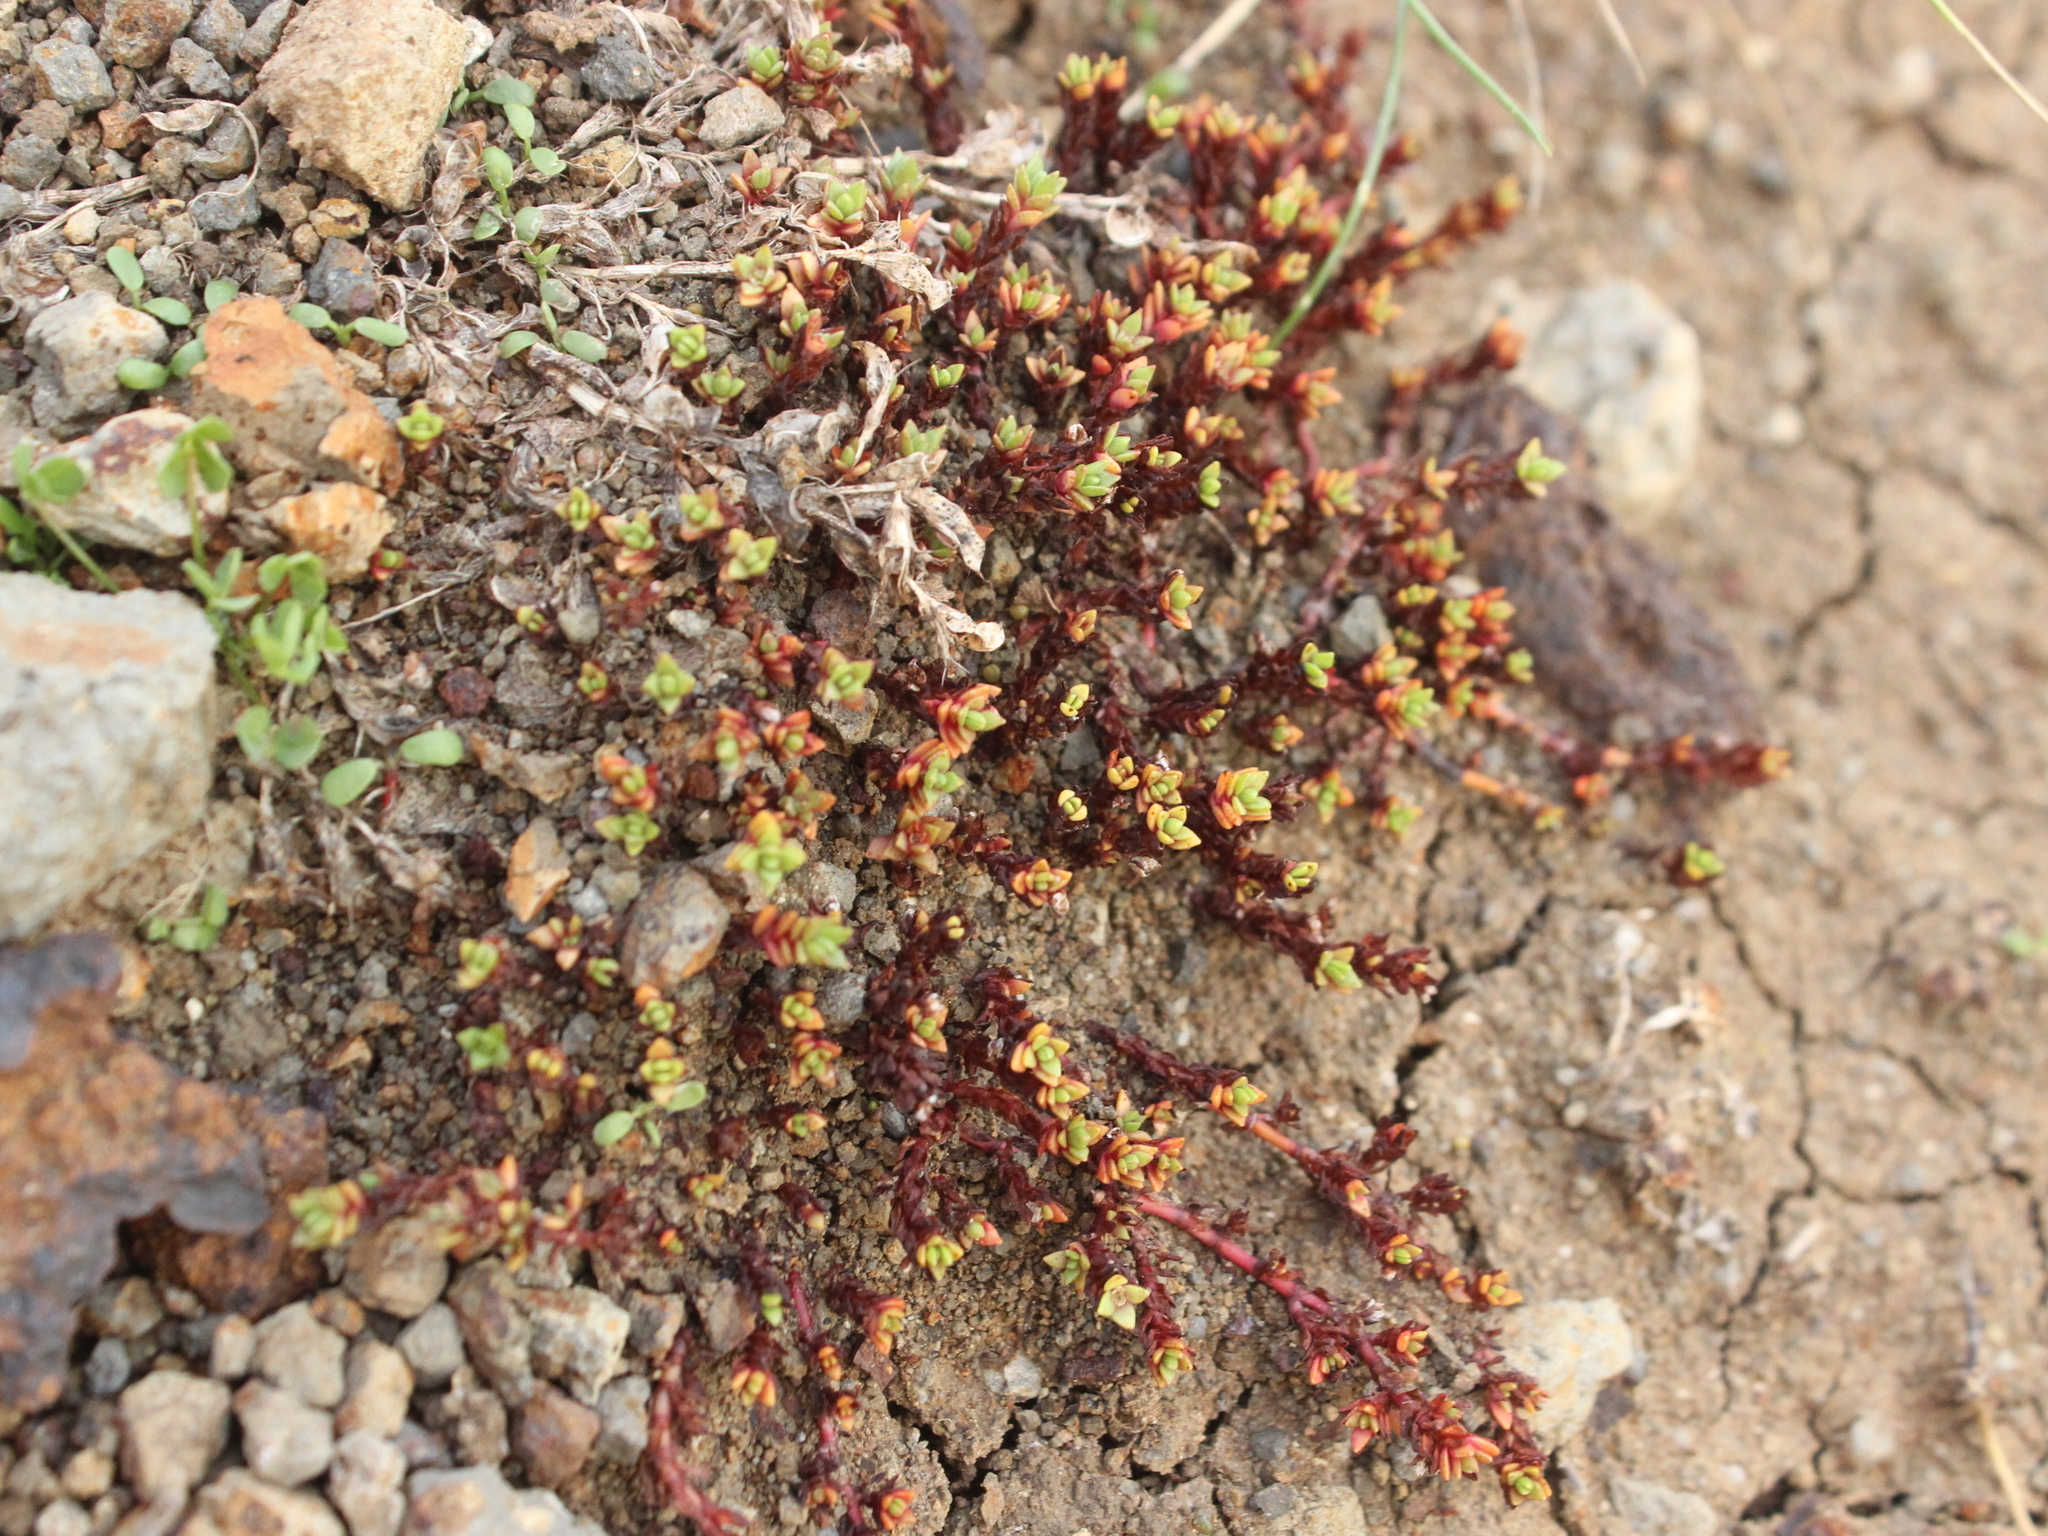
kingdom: Plantae
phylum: Tracheophyta
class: Magnoliopsida
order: Saxifragales
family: Crassulaceae
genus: Crassula
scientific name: Crassula moschata
